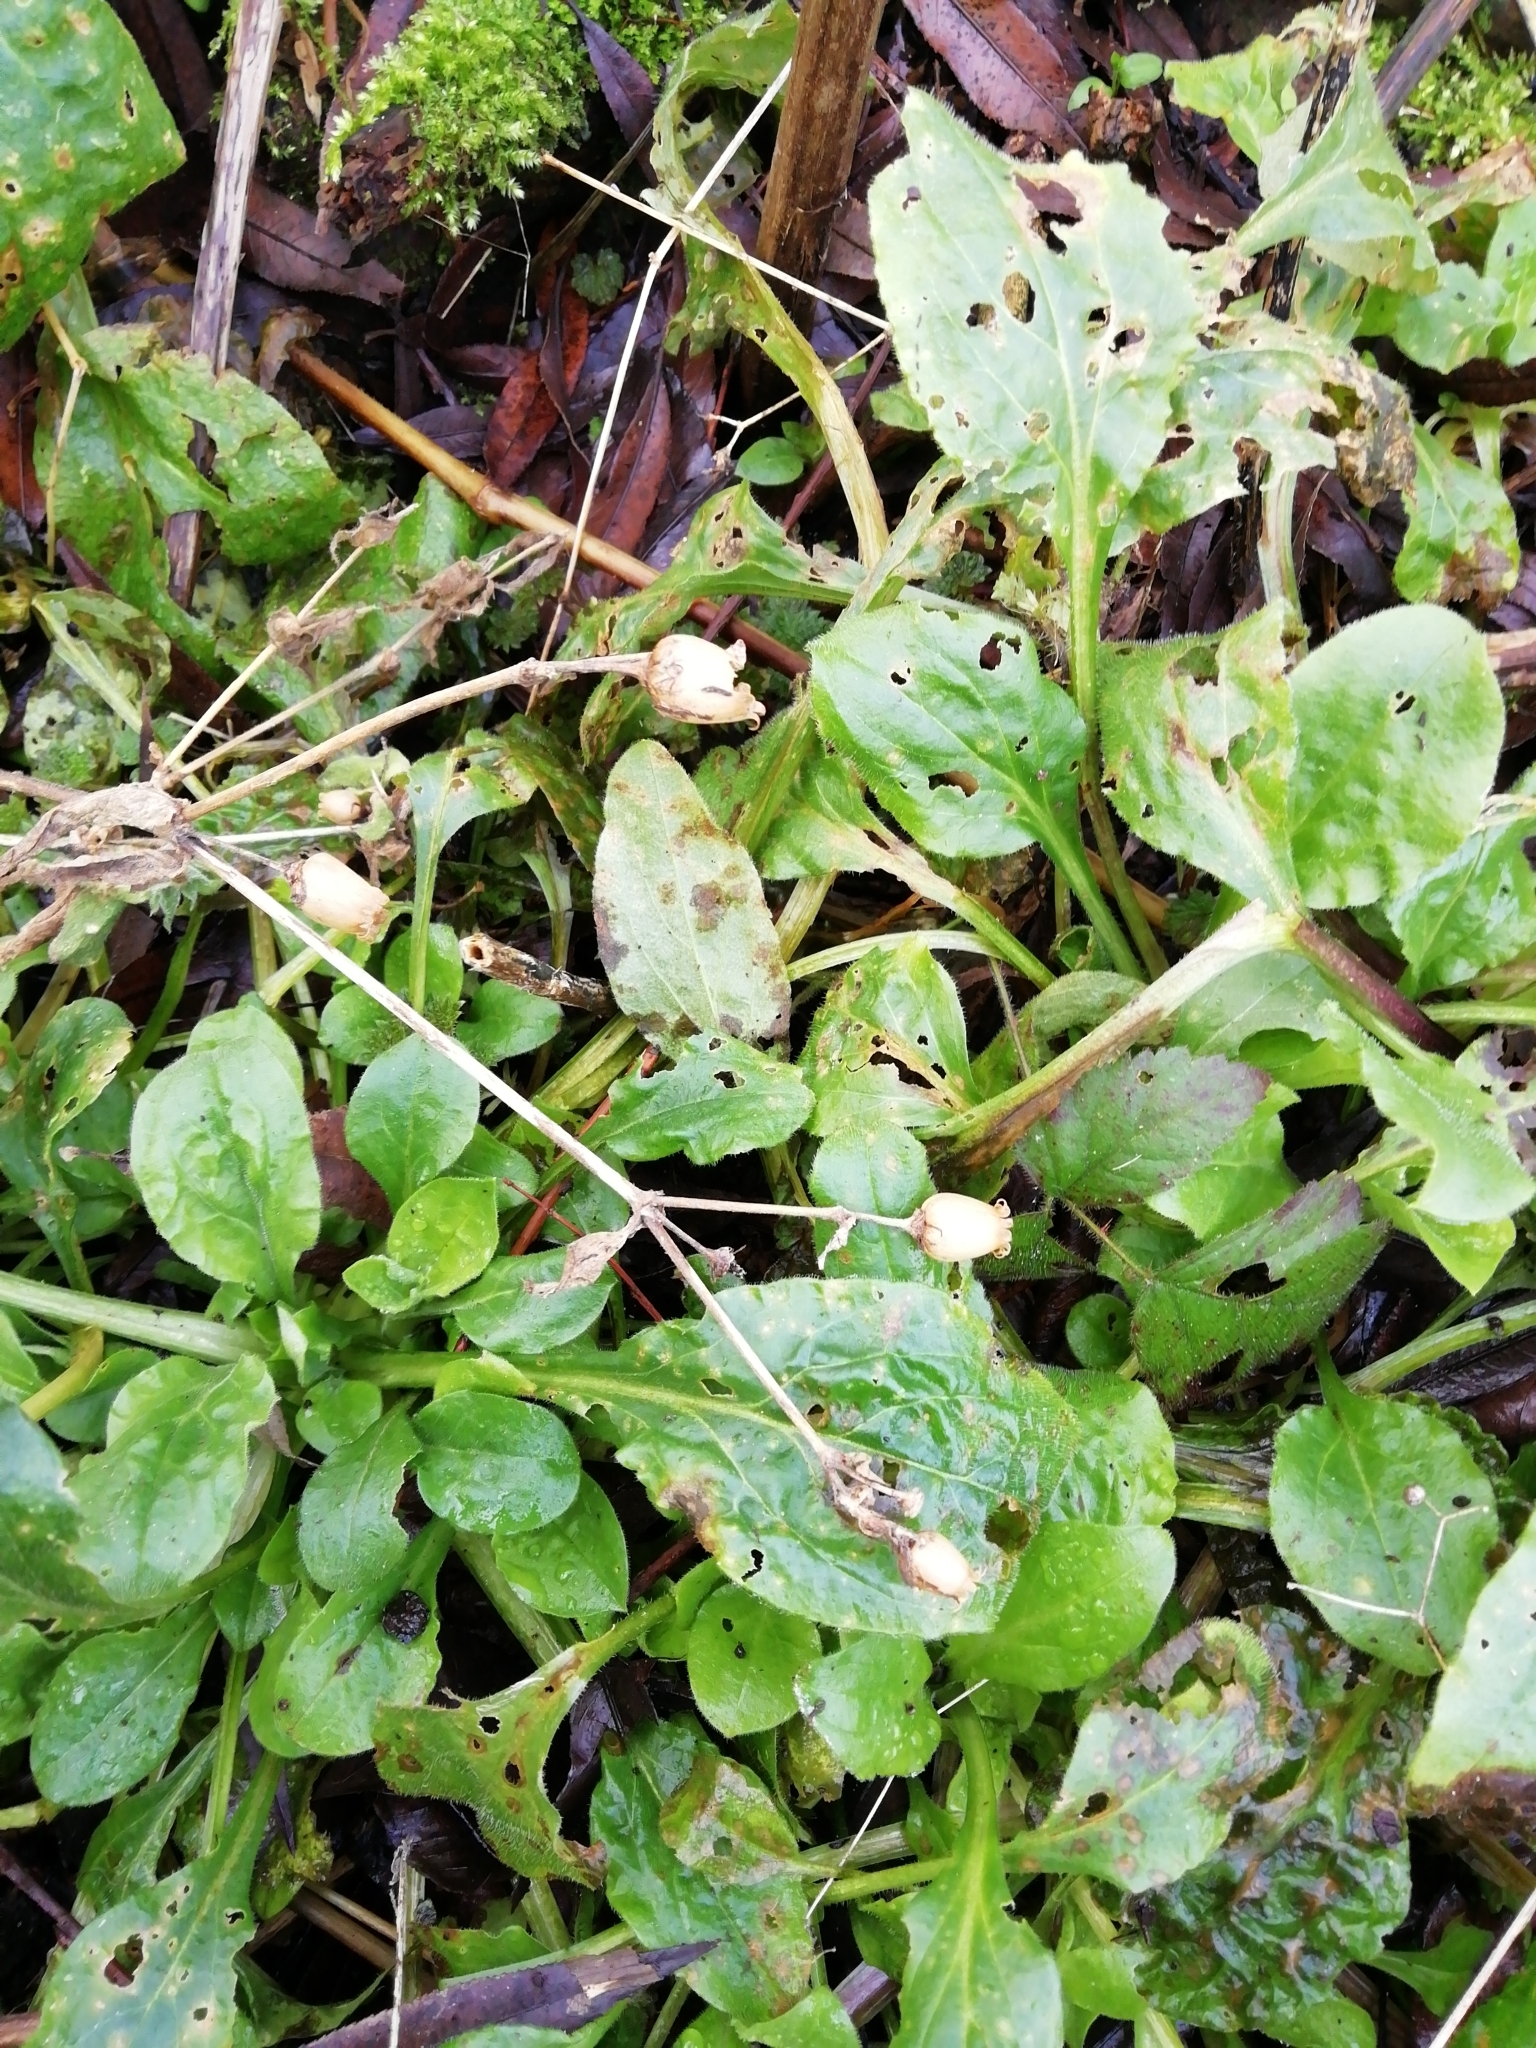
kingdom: Plantae
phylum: Tracheophyta
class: Magnoliopsida
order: Caryophyllales
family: Caryophyllaceae
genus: Silene
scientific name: Silene dioica
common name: Red campion
